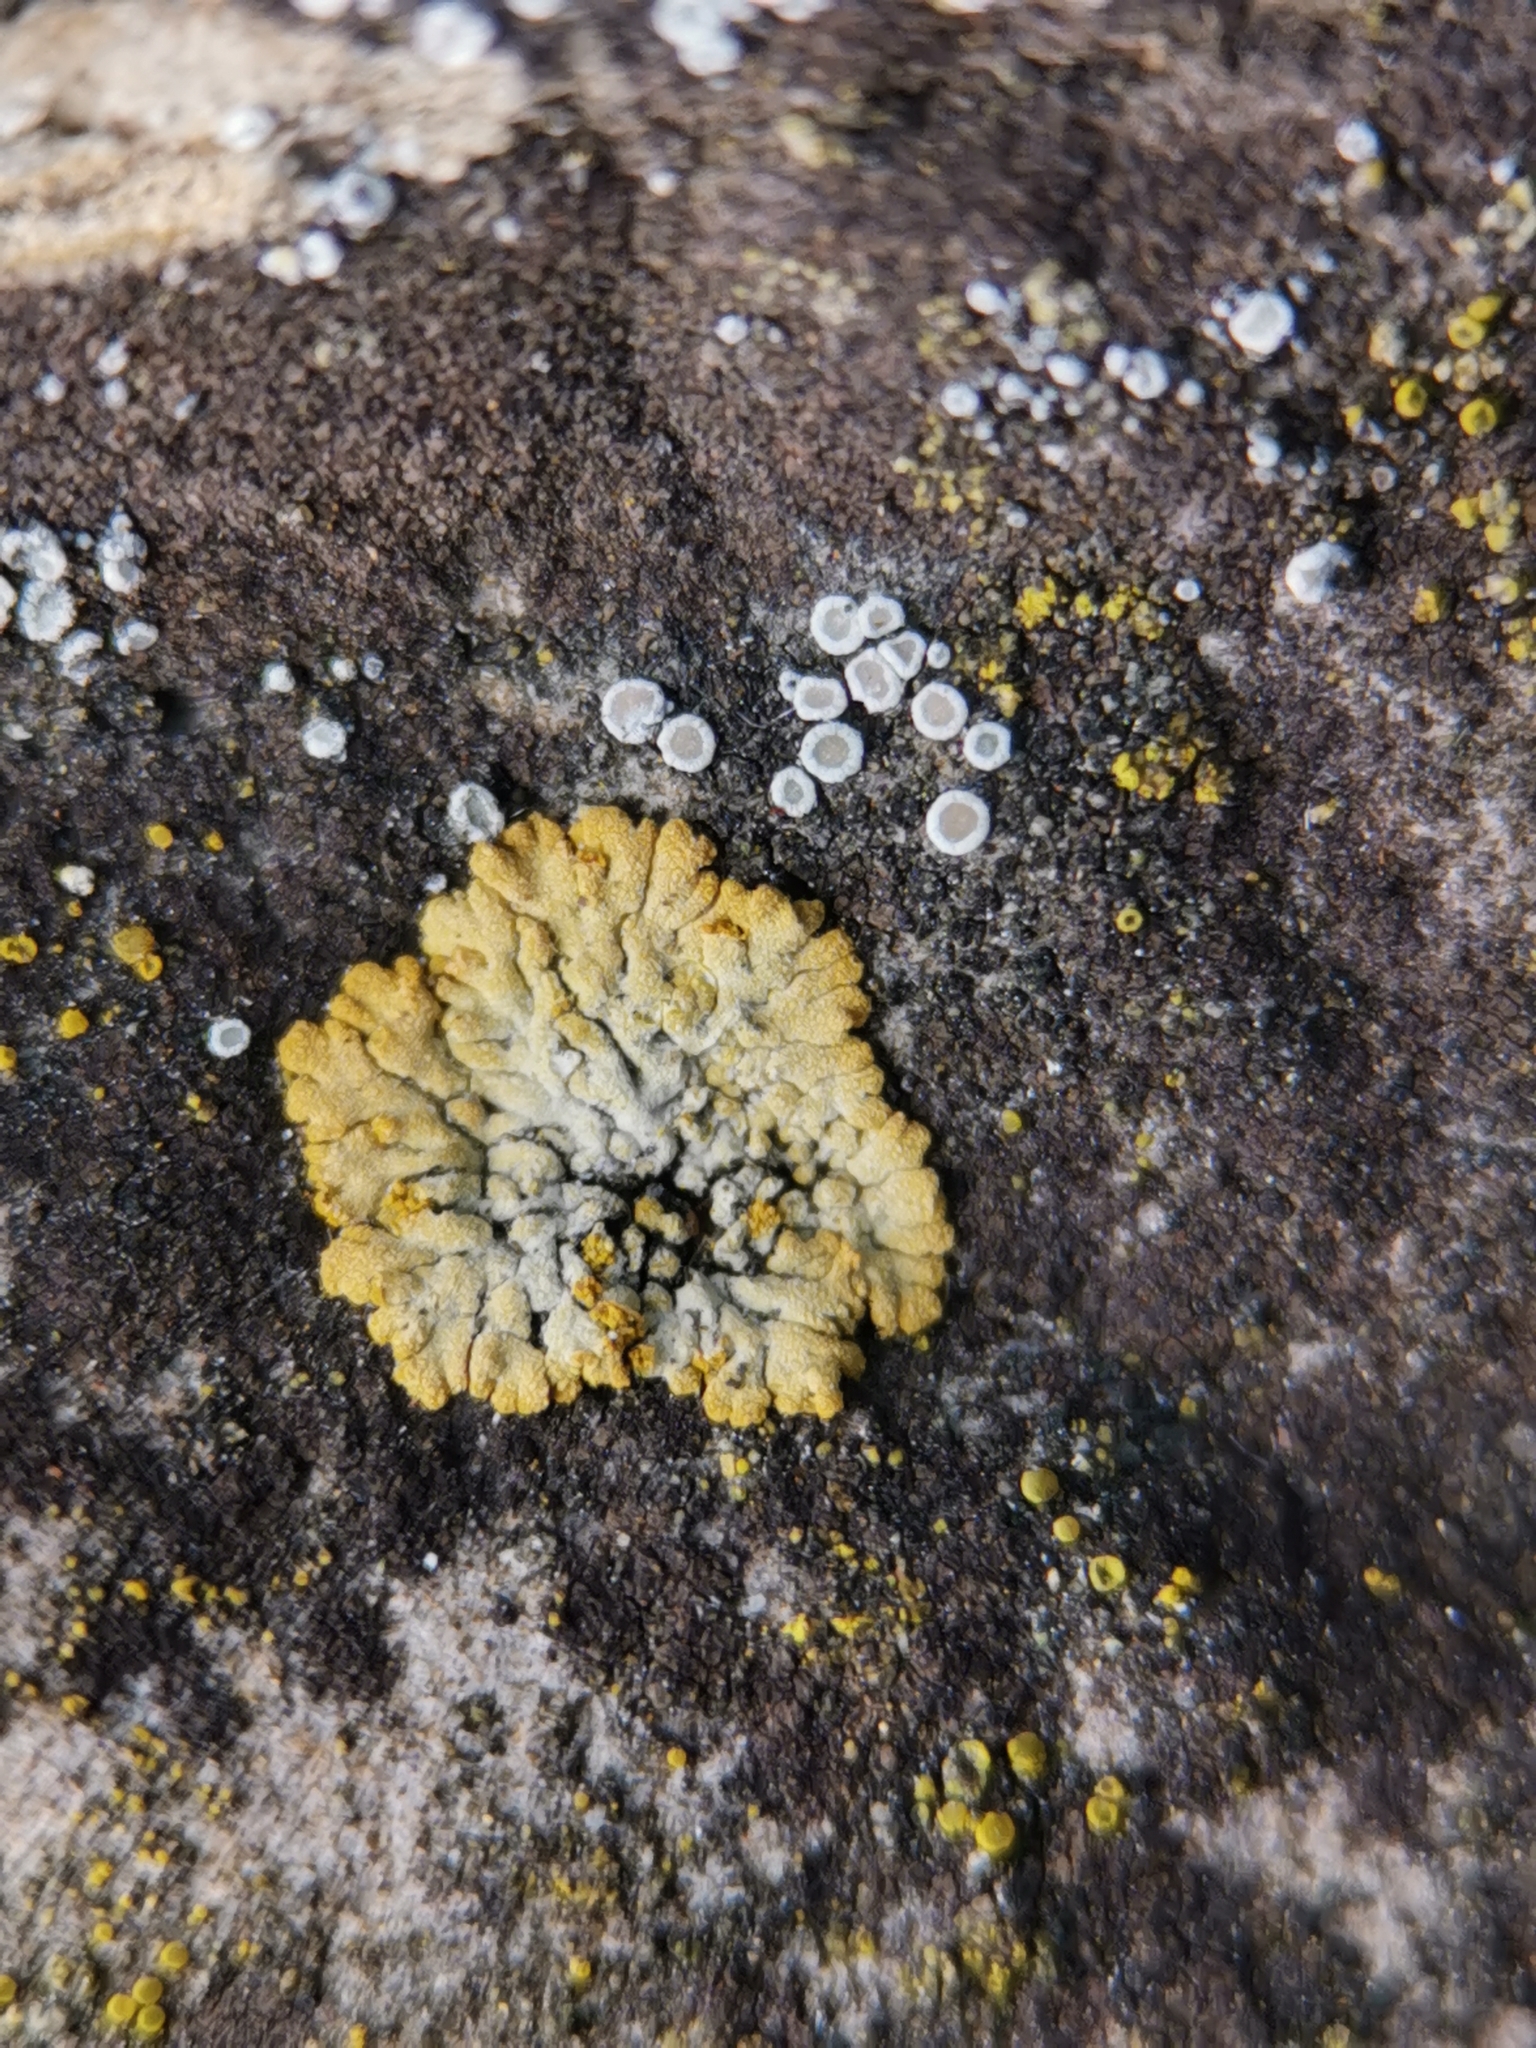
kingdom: Fungi
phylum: Ascomycota
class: Lecanoromycetes
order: Teloschistales
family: Teloschistaceae
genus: Calogaya
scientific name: Calogaya decipiens
